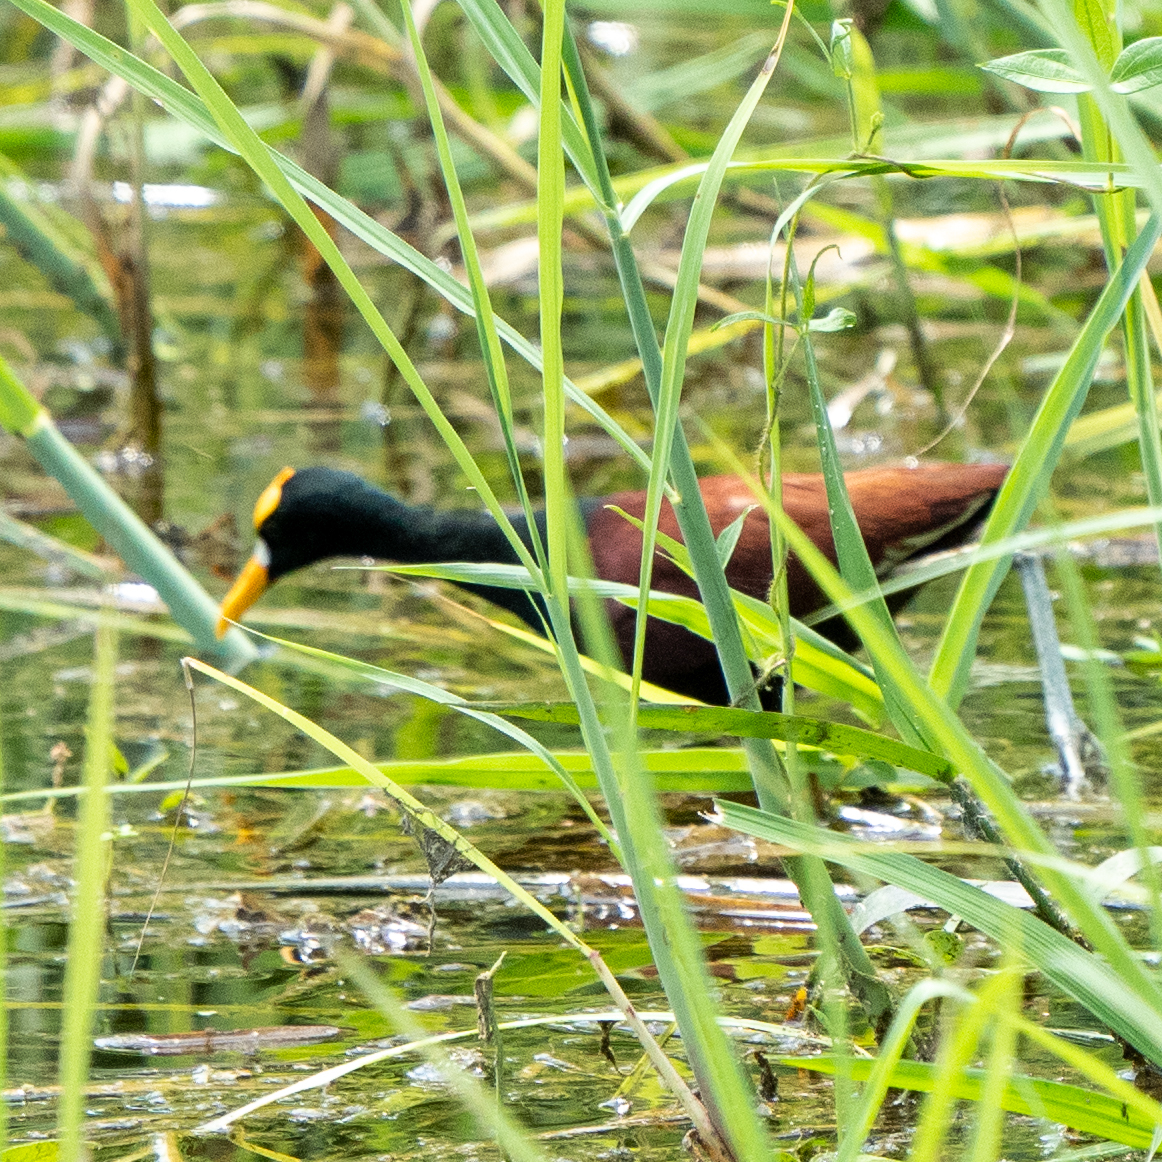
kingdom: Animalia
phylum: Chordata
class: Aves
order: Charadriiformes
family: Jacanidae
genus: Jacana
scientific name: Jacana spinosa
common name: Northern jacana
